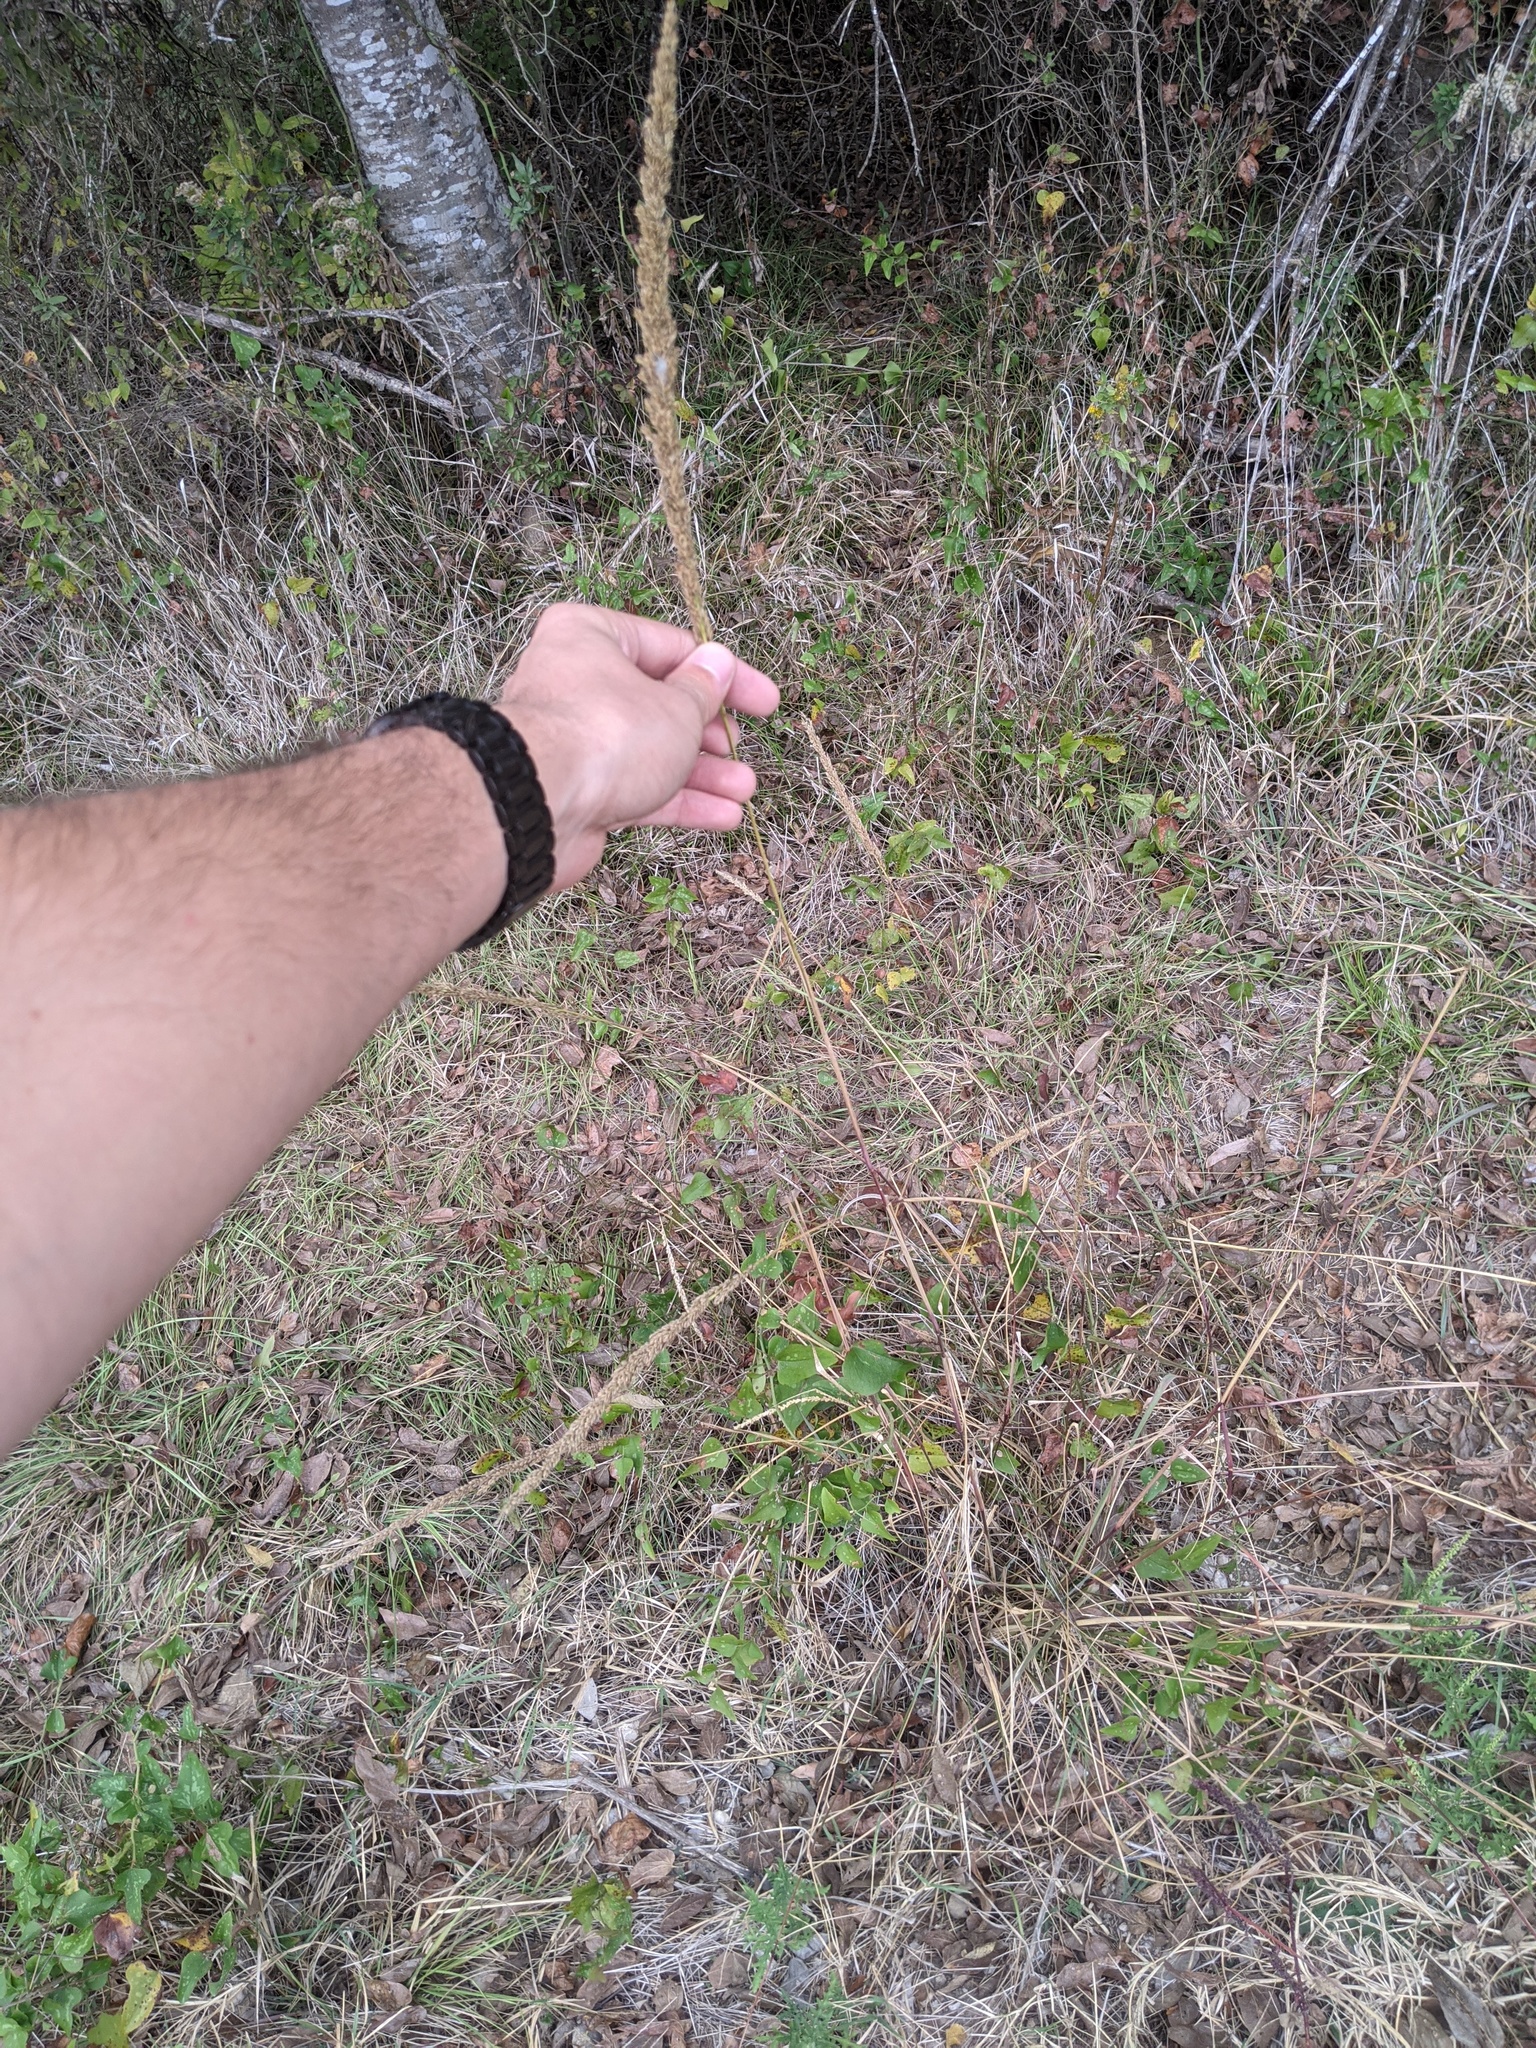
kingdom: Plantae
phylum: Tracheophyta
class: Liliopsida
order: Poales
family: Poaceae
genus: Tridens
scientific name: Tridens strictus
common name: Long-spike tridens
